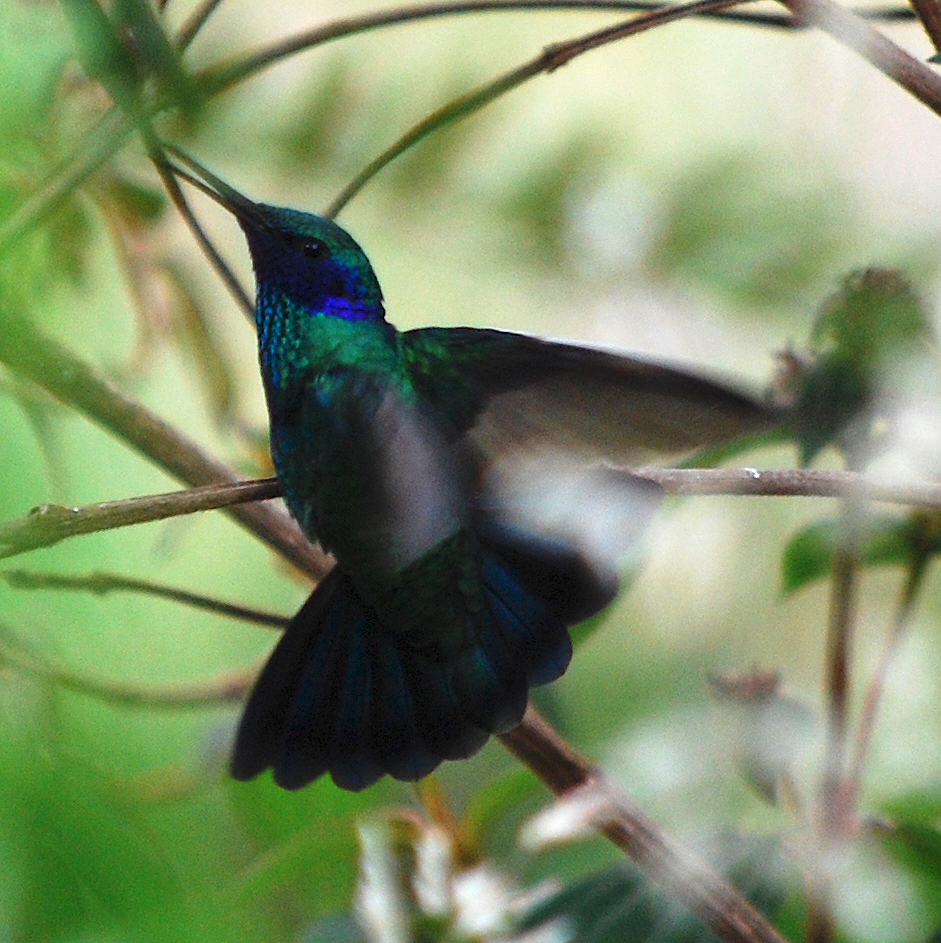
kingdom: Animalia
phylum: Chordata
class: Aves
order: Apodiformes
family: Trochilidae
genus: Colibri
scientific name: Colibri coruscans
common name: Sparkling violetear
